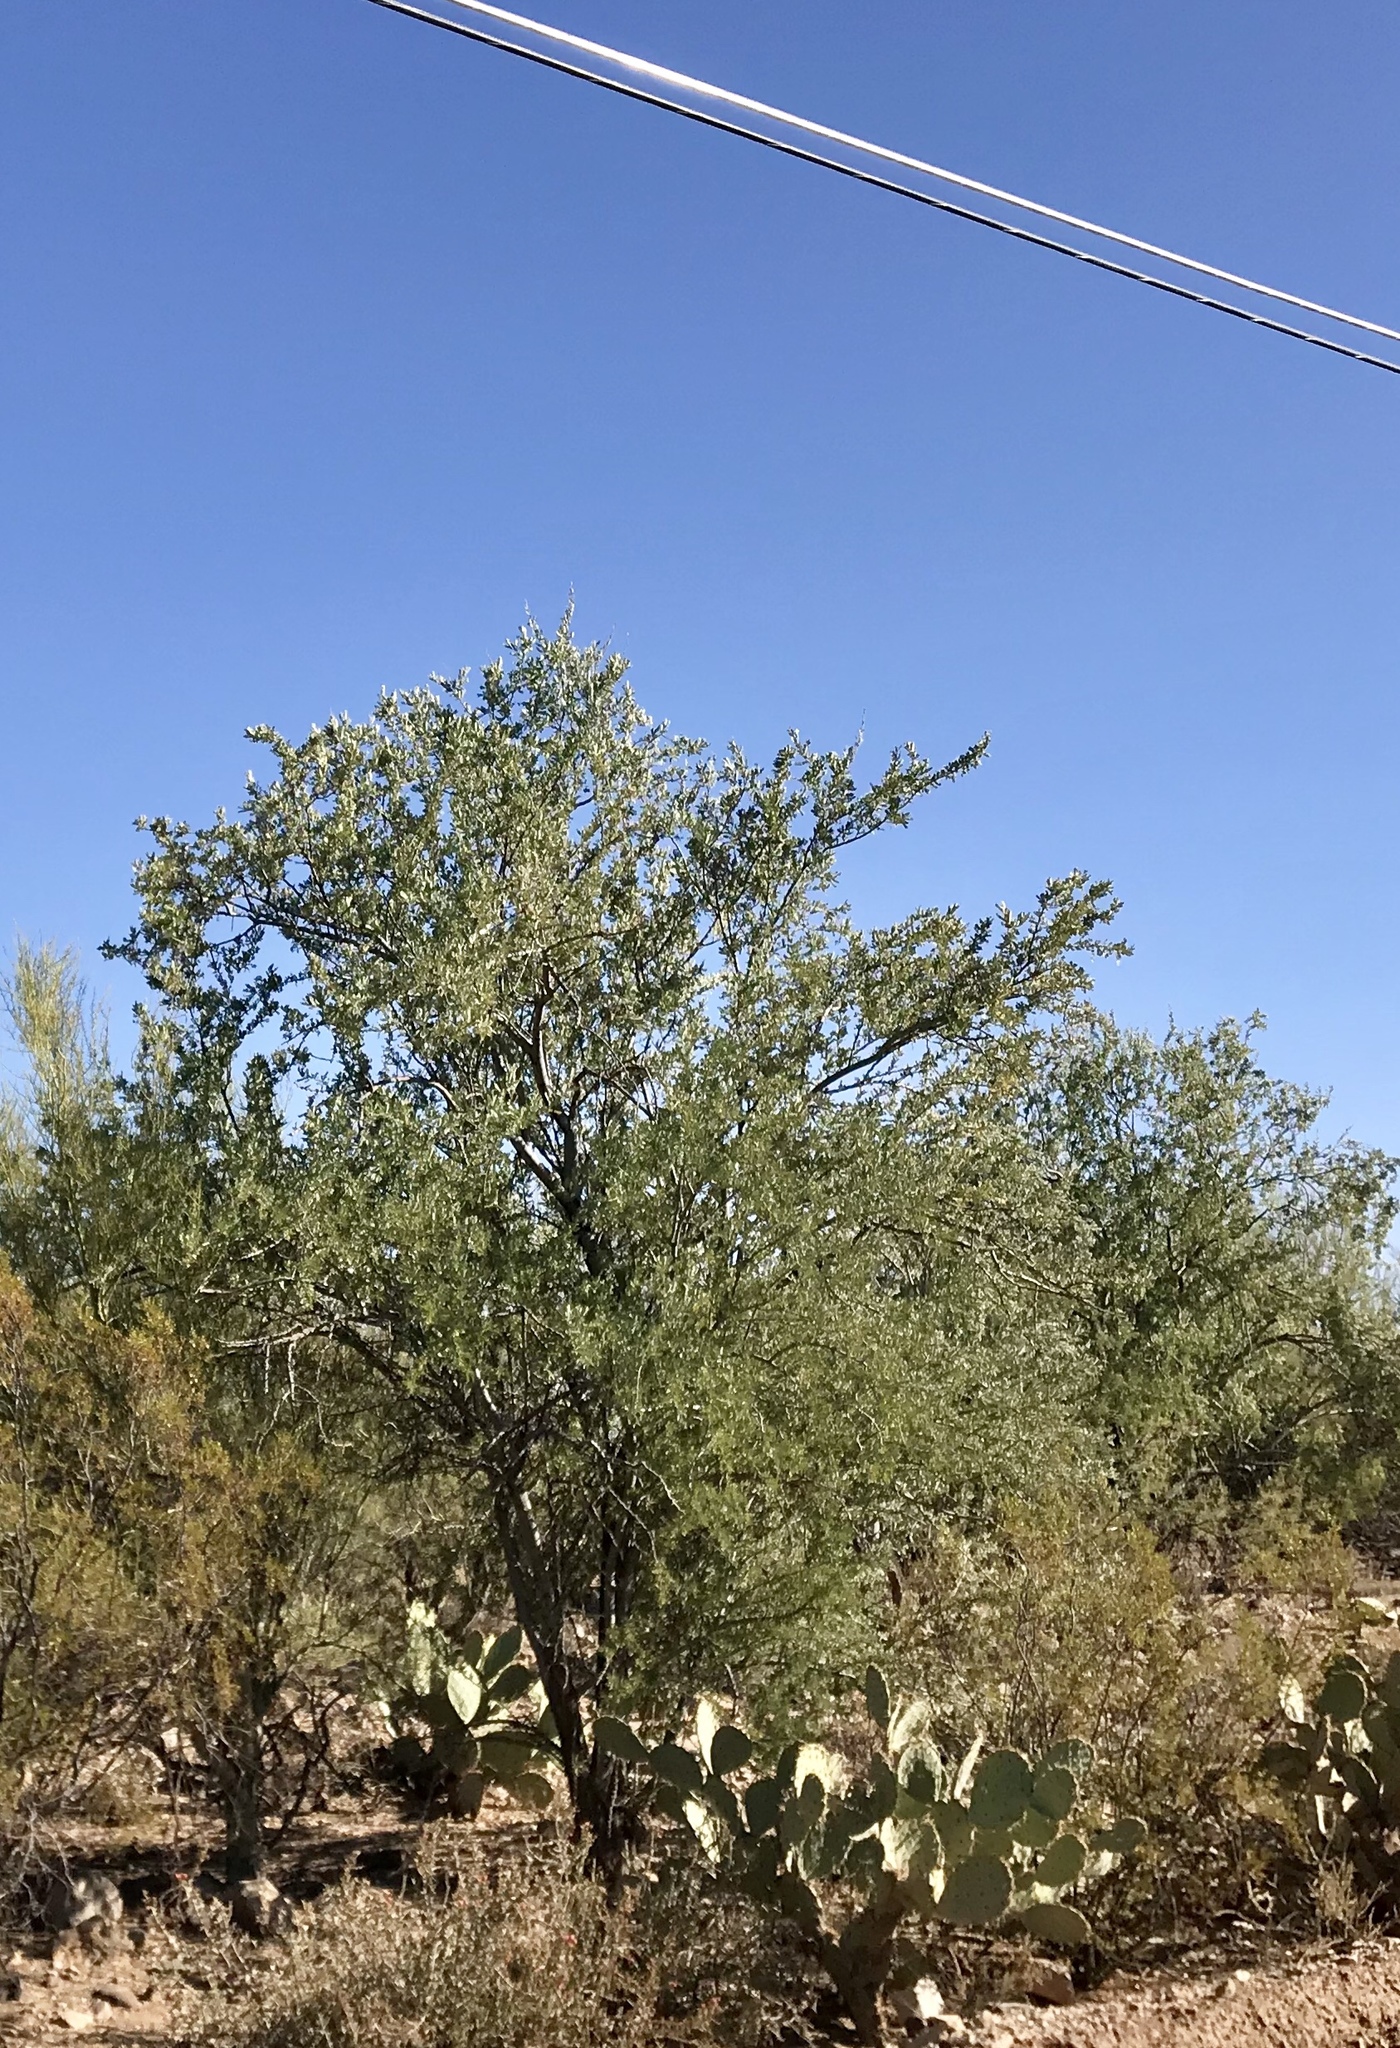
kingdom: Plantae
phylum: Tracheophyta
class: Magnoliopsida
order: Fabales
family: Fabaceae
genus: Olneya
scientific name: Olneya tesota
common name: Desert ironwood
